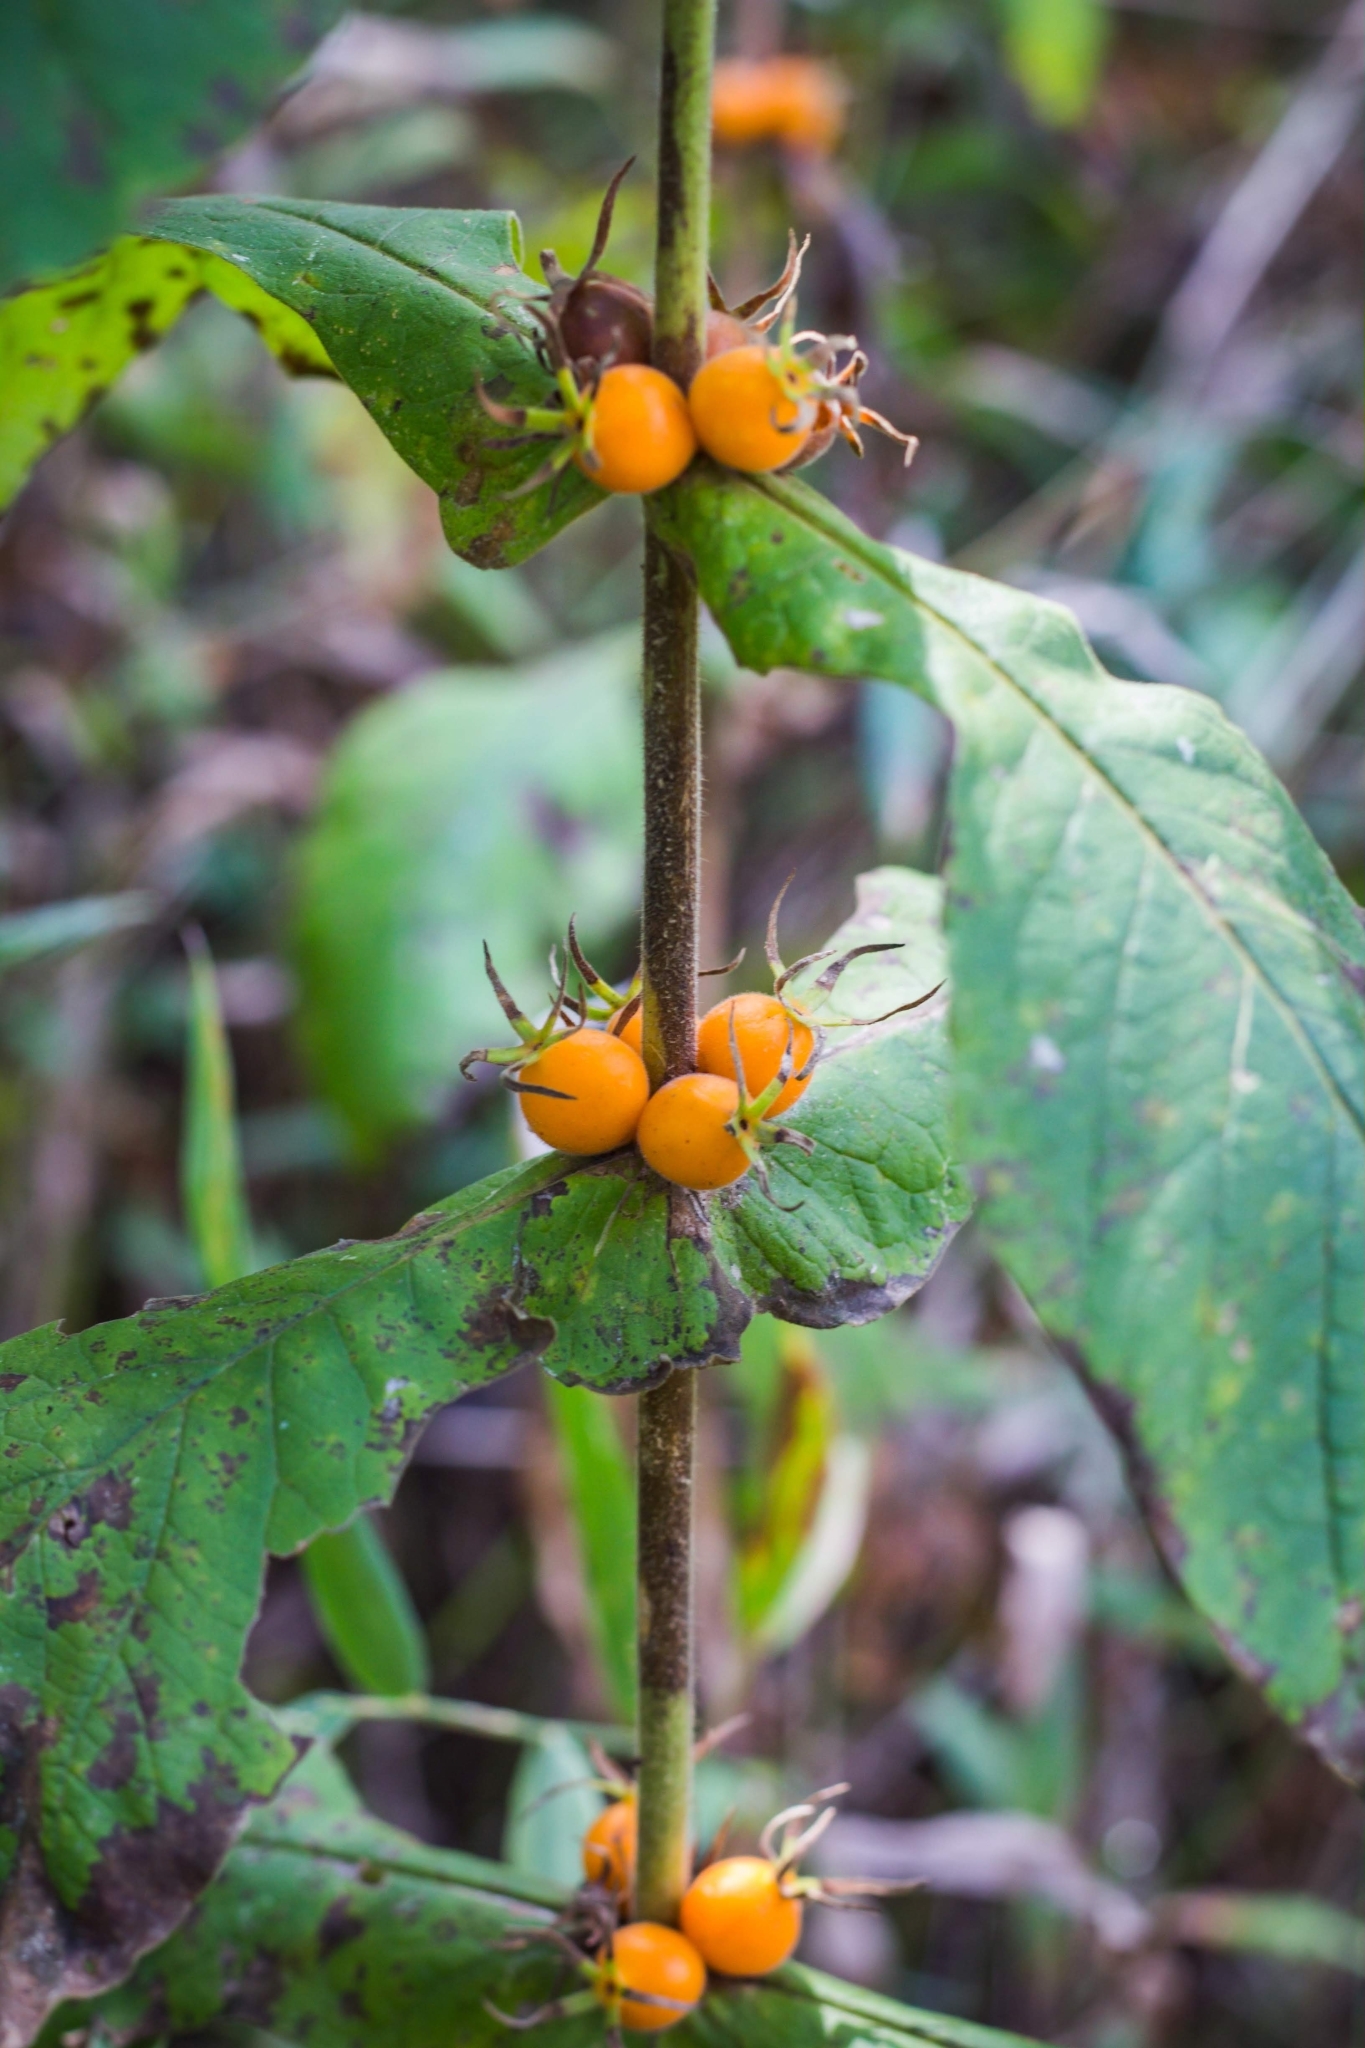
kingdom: Plantae
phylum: Tracheophyta
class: Magnoliopsida
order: Dipsacales
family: Caprifoliaceae
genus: Triosteum
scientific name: Triosteum perfoliatum
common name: Common horse-gentian
